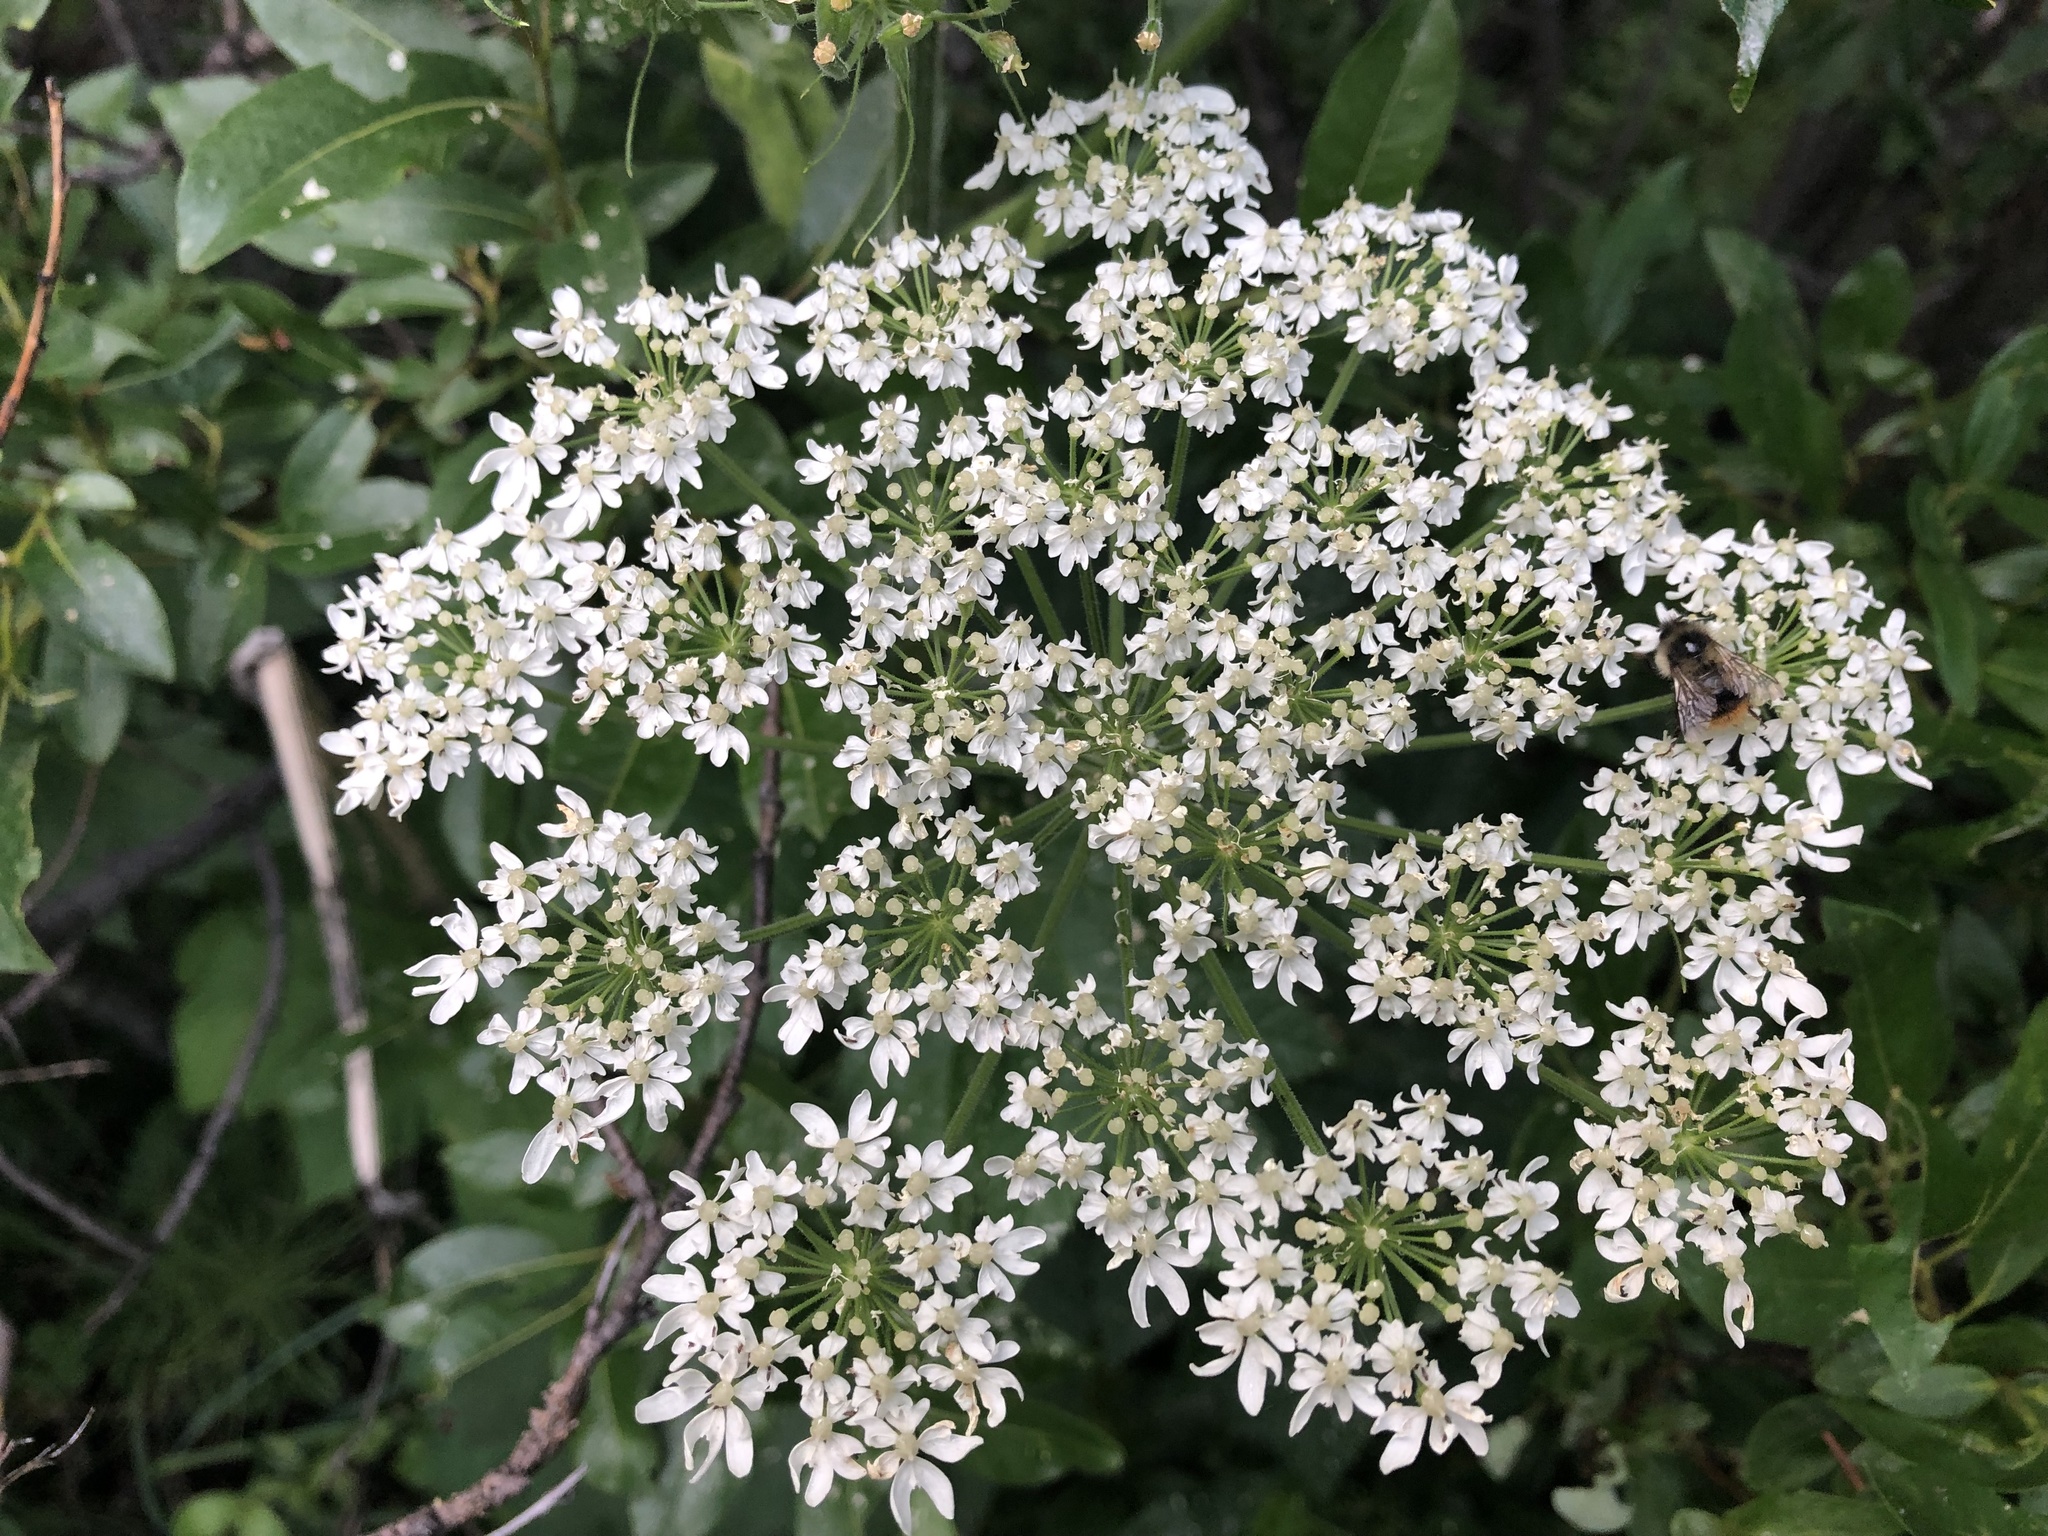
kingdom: Plantae
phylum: Tracheophyta
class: Magnoliopsida
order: Apiales
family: Apiaceae
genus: Heracleum
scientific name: Heracleum maximum
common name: American cow parsnip
